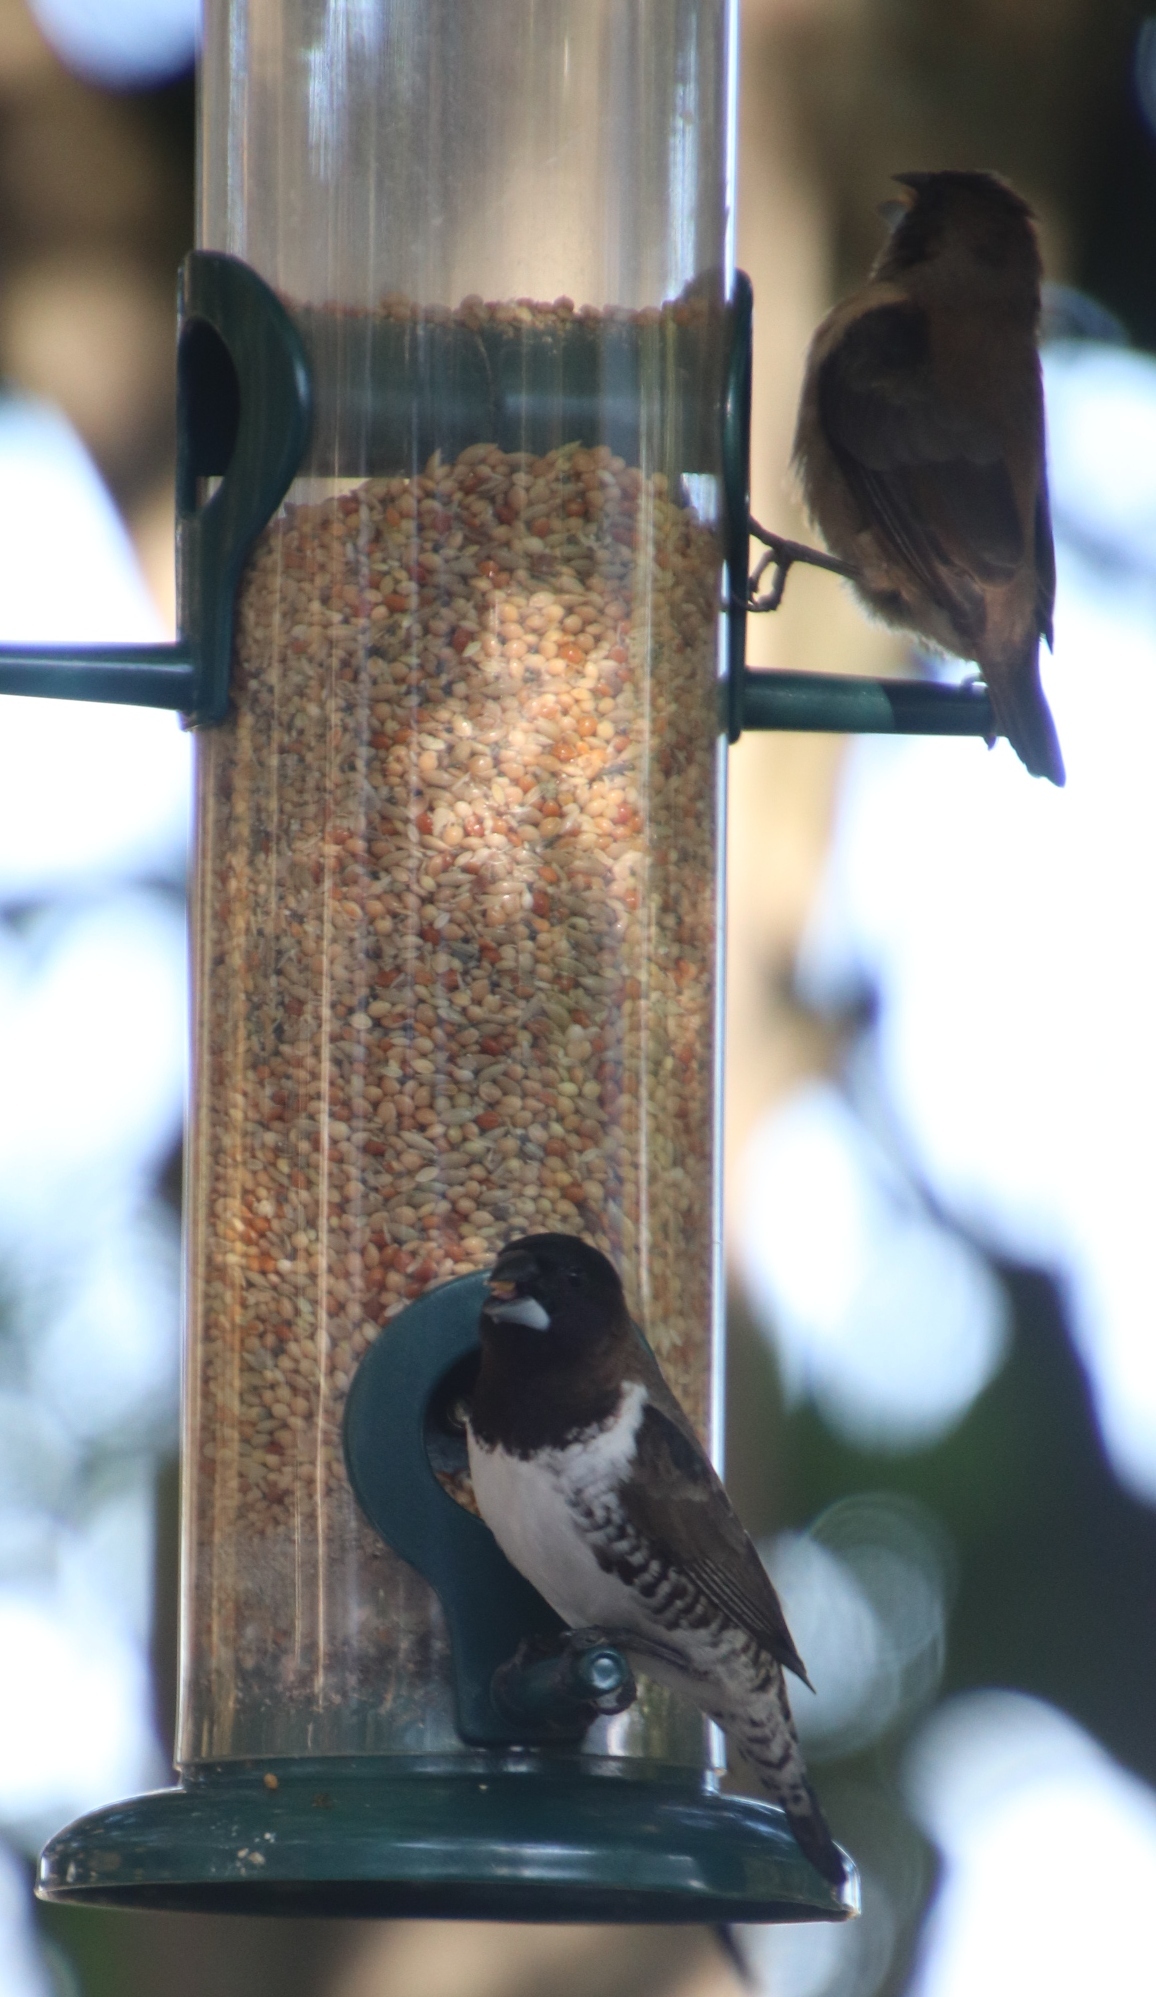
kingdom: Animalia
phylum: Chordata
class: Aves
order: Passeriformes
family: Estrildidae
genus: Lonchura
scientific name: Lonchura cucullata
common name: Bronze mannikin
